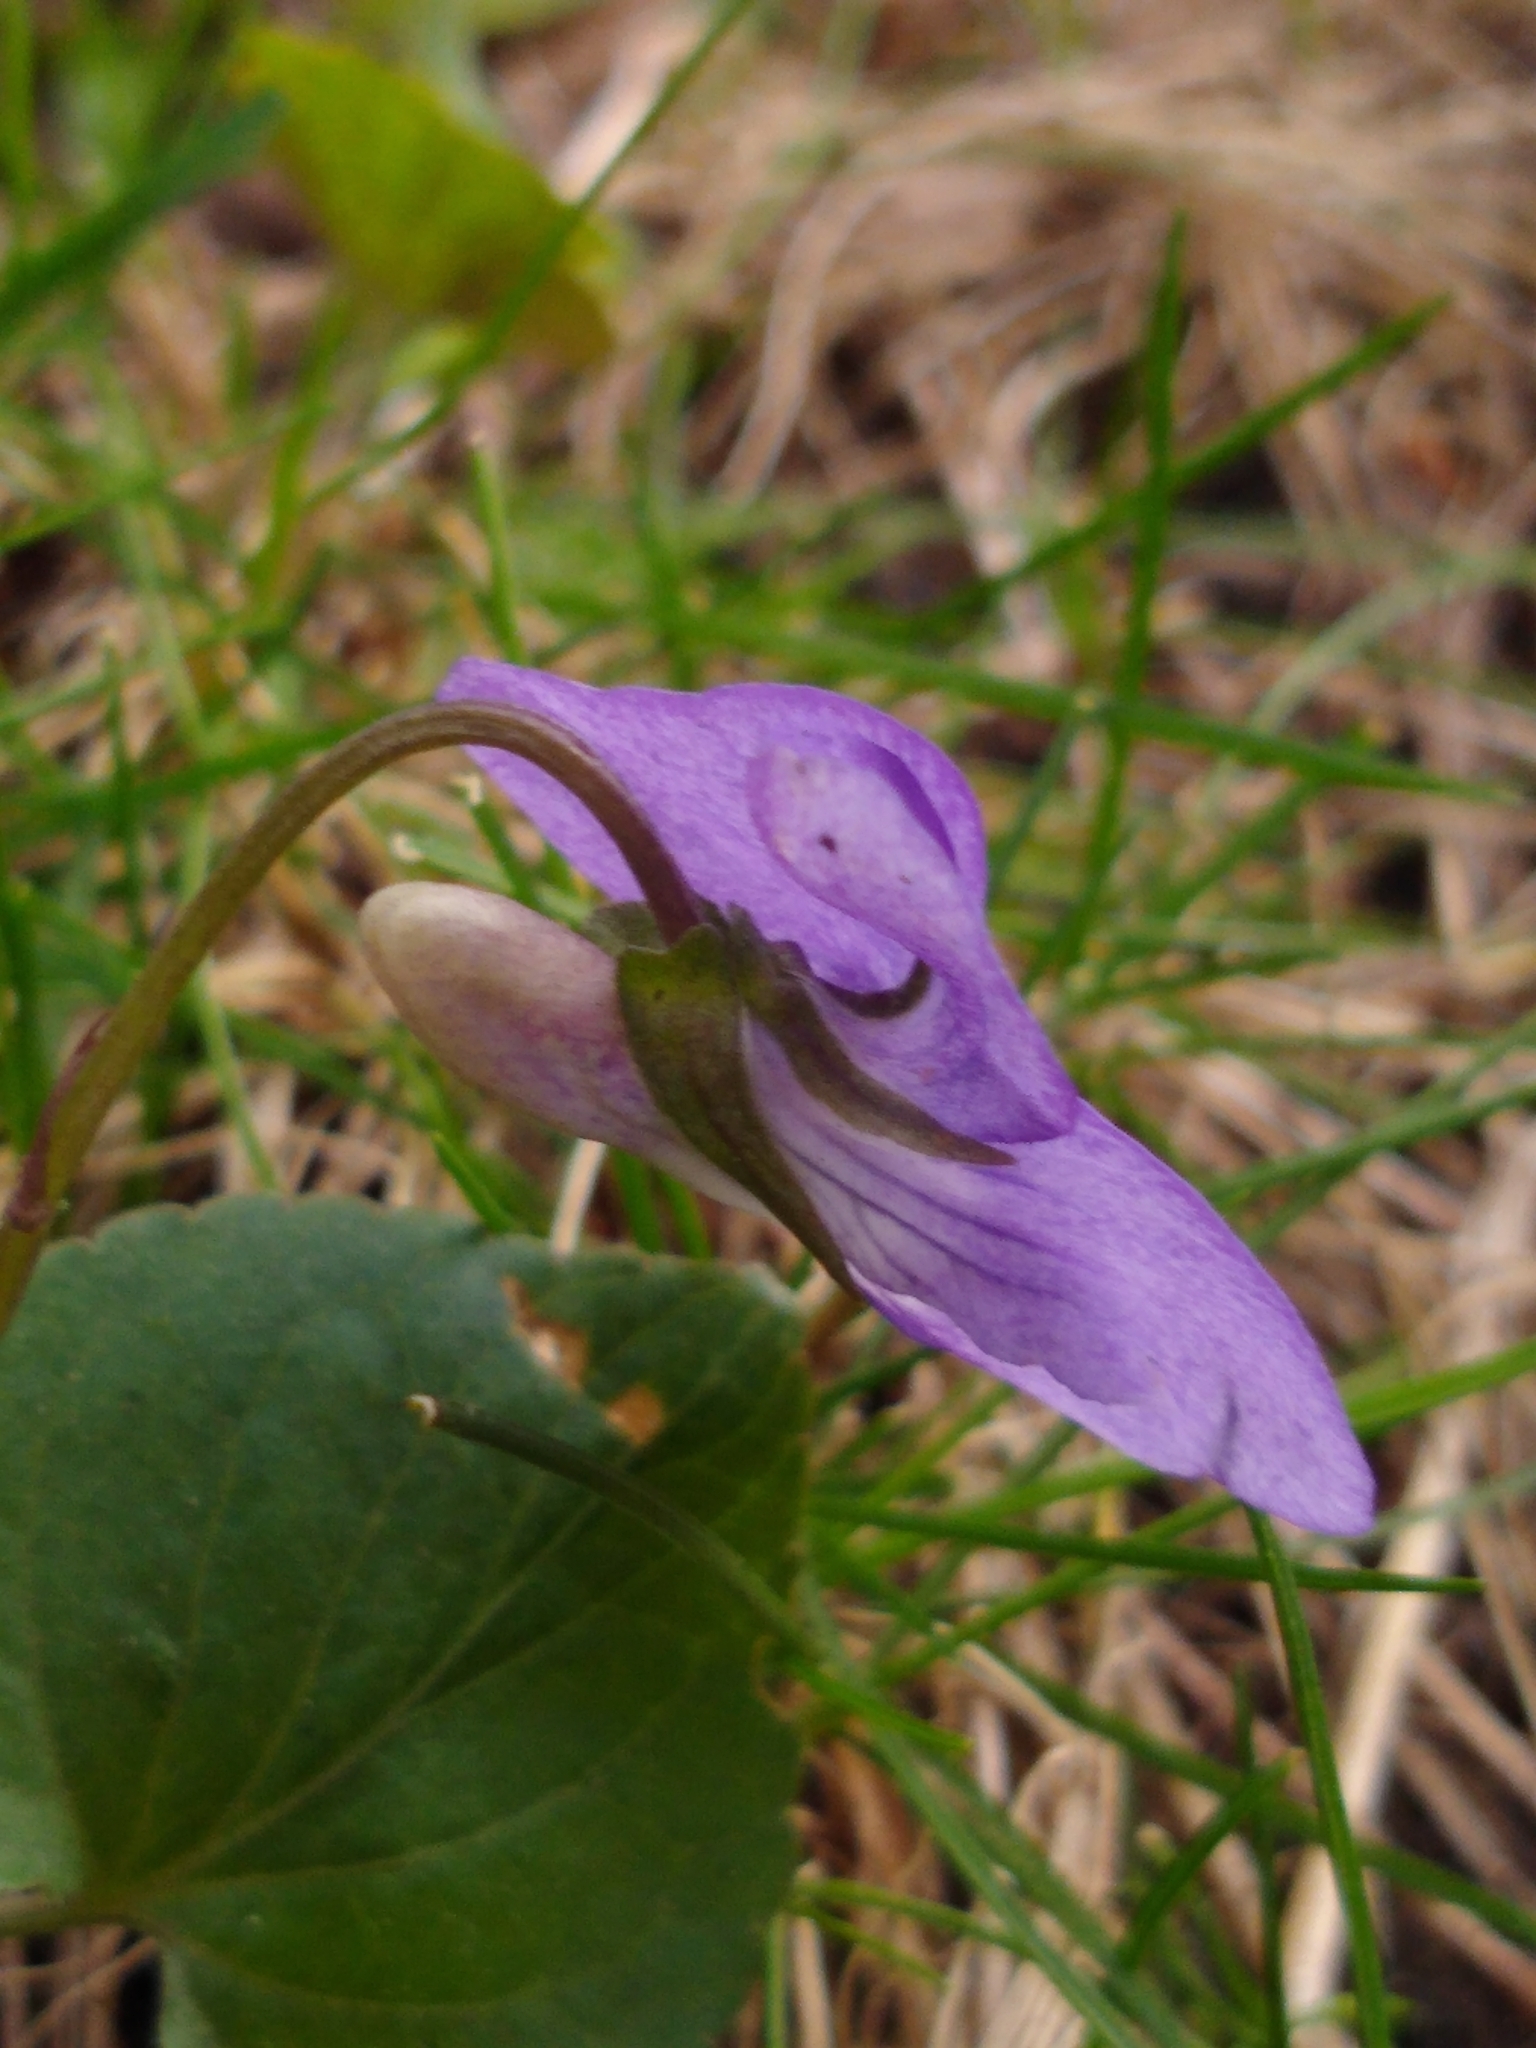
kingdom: Plantae
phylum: Tracheophyta
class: Magnoliopsida
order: Malpighiales
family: Violaceae
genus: Viola
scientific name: Viola riviniana
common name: Common dog-violet
